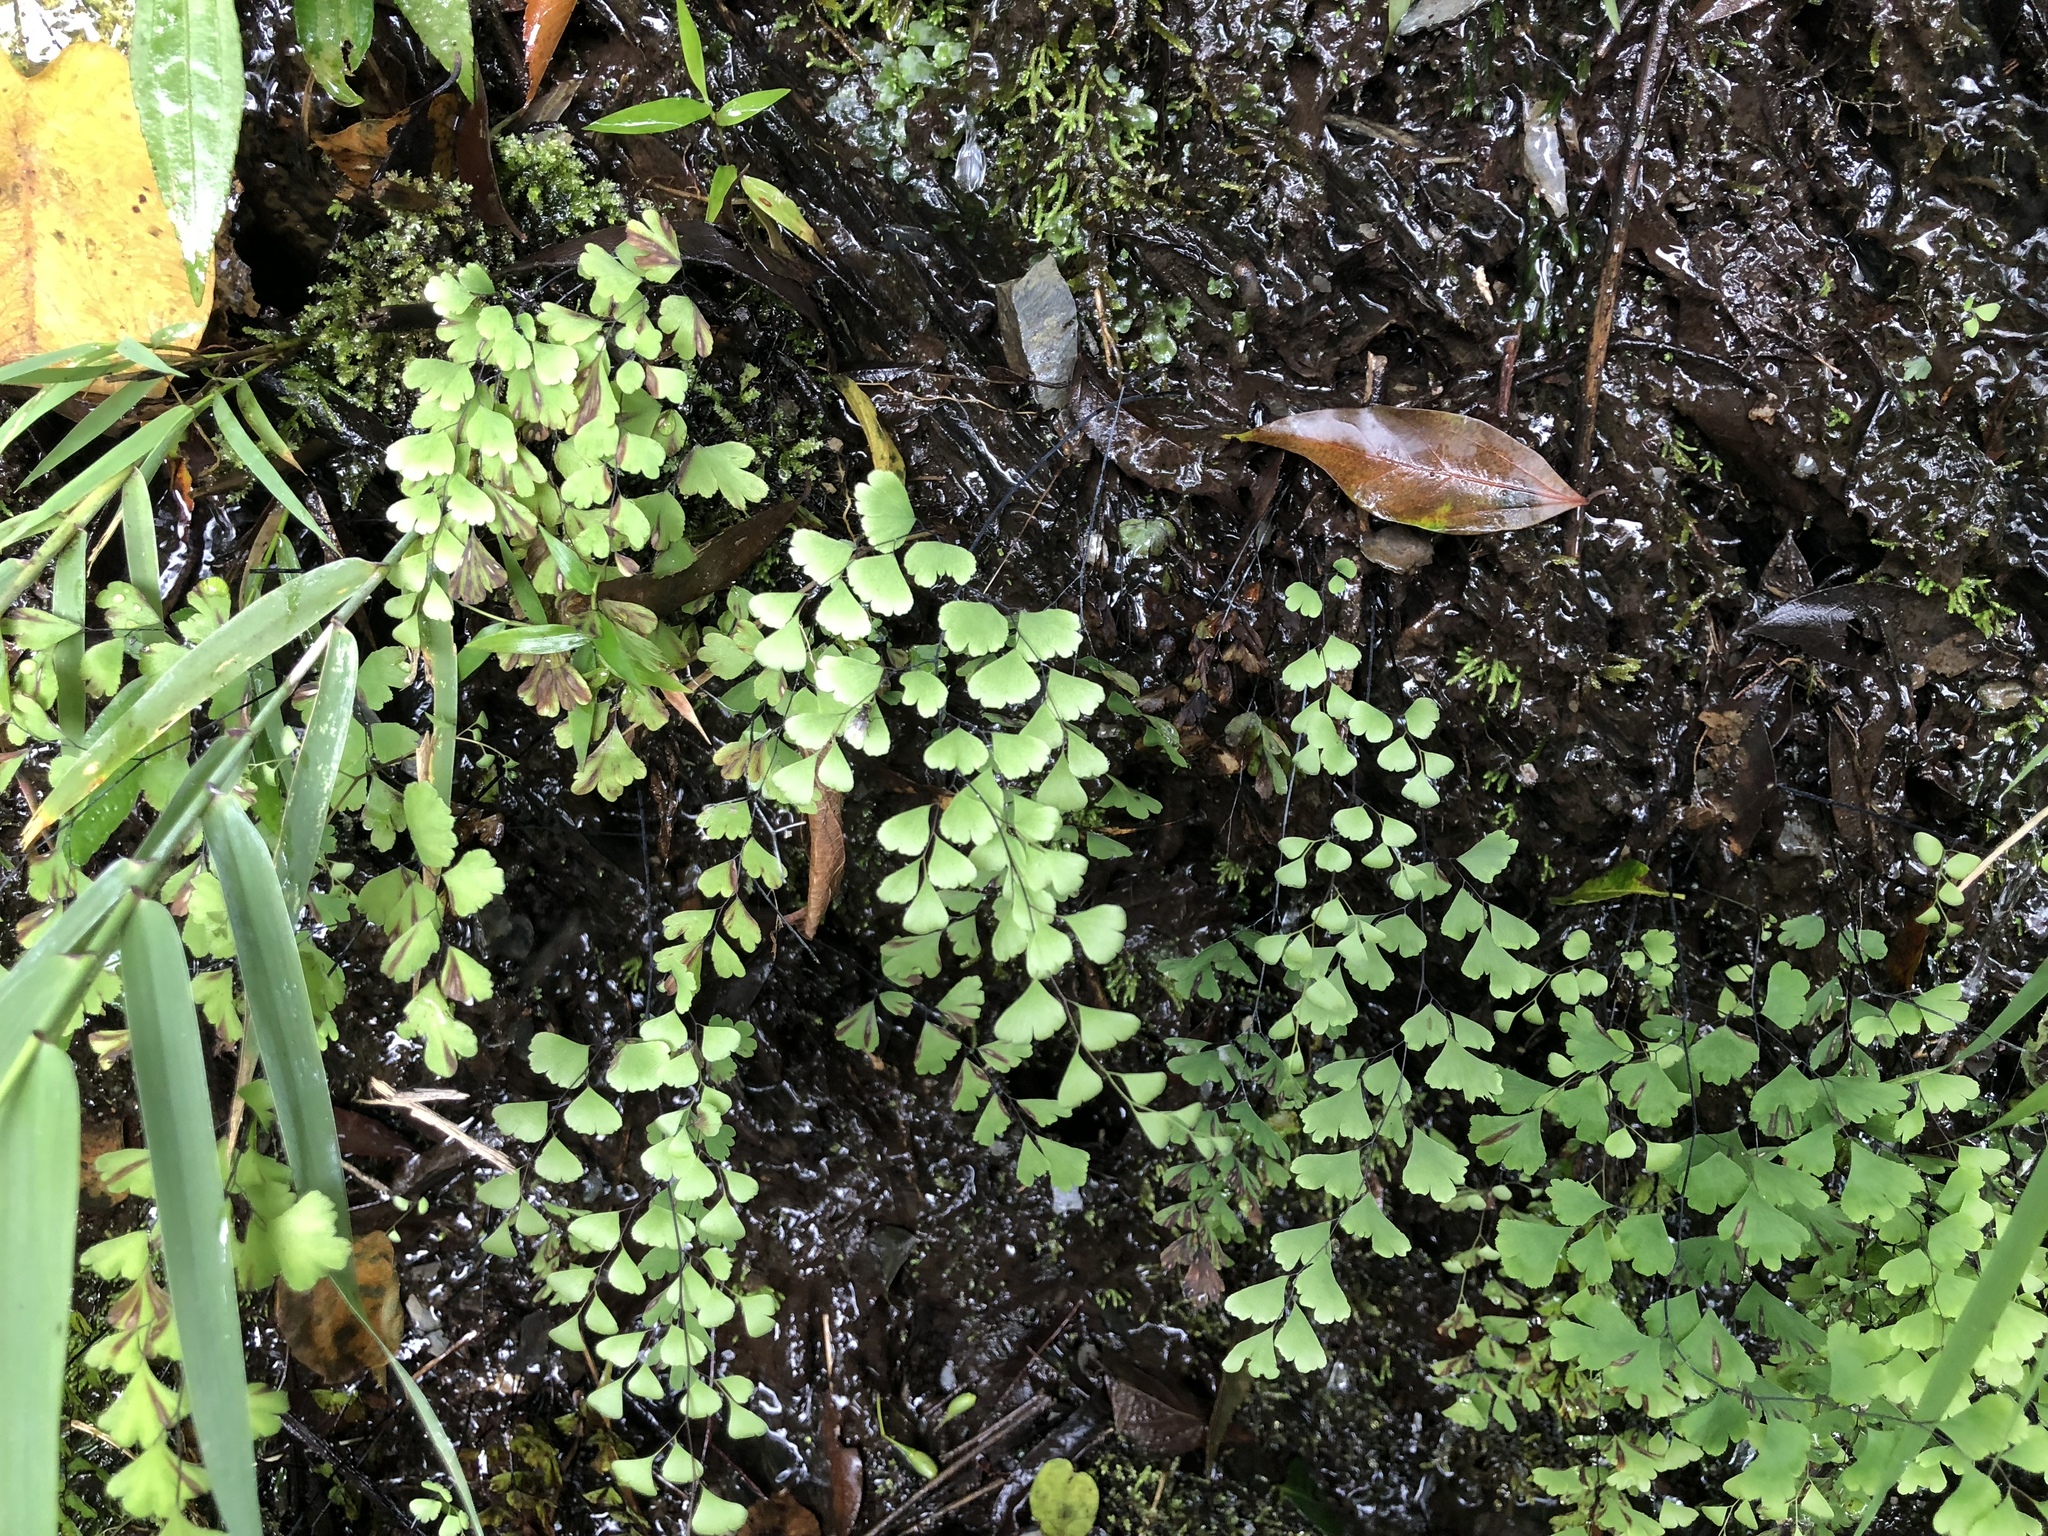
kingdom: Plantae
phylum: Tracheophyta
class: Polypodiopsida
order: Polypodiales
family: Pteridaceae
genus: Adiantum
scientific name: Adiantum capillus-veneris
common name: Maidenhair fern
